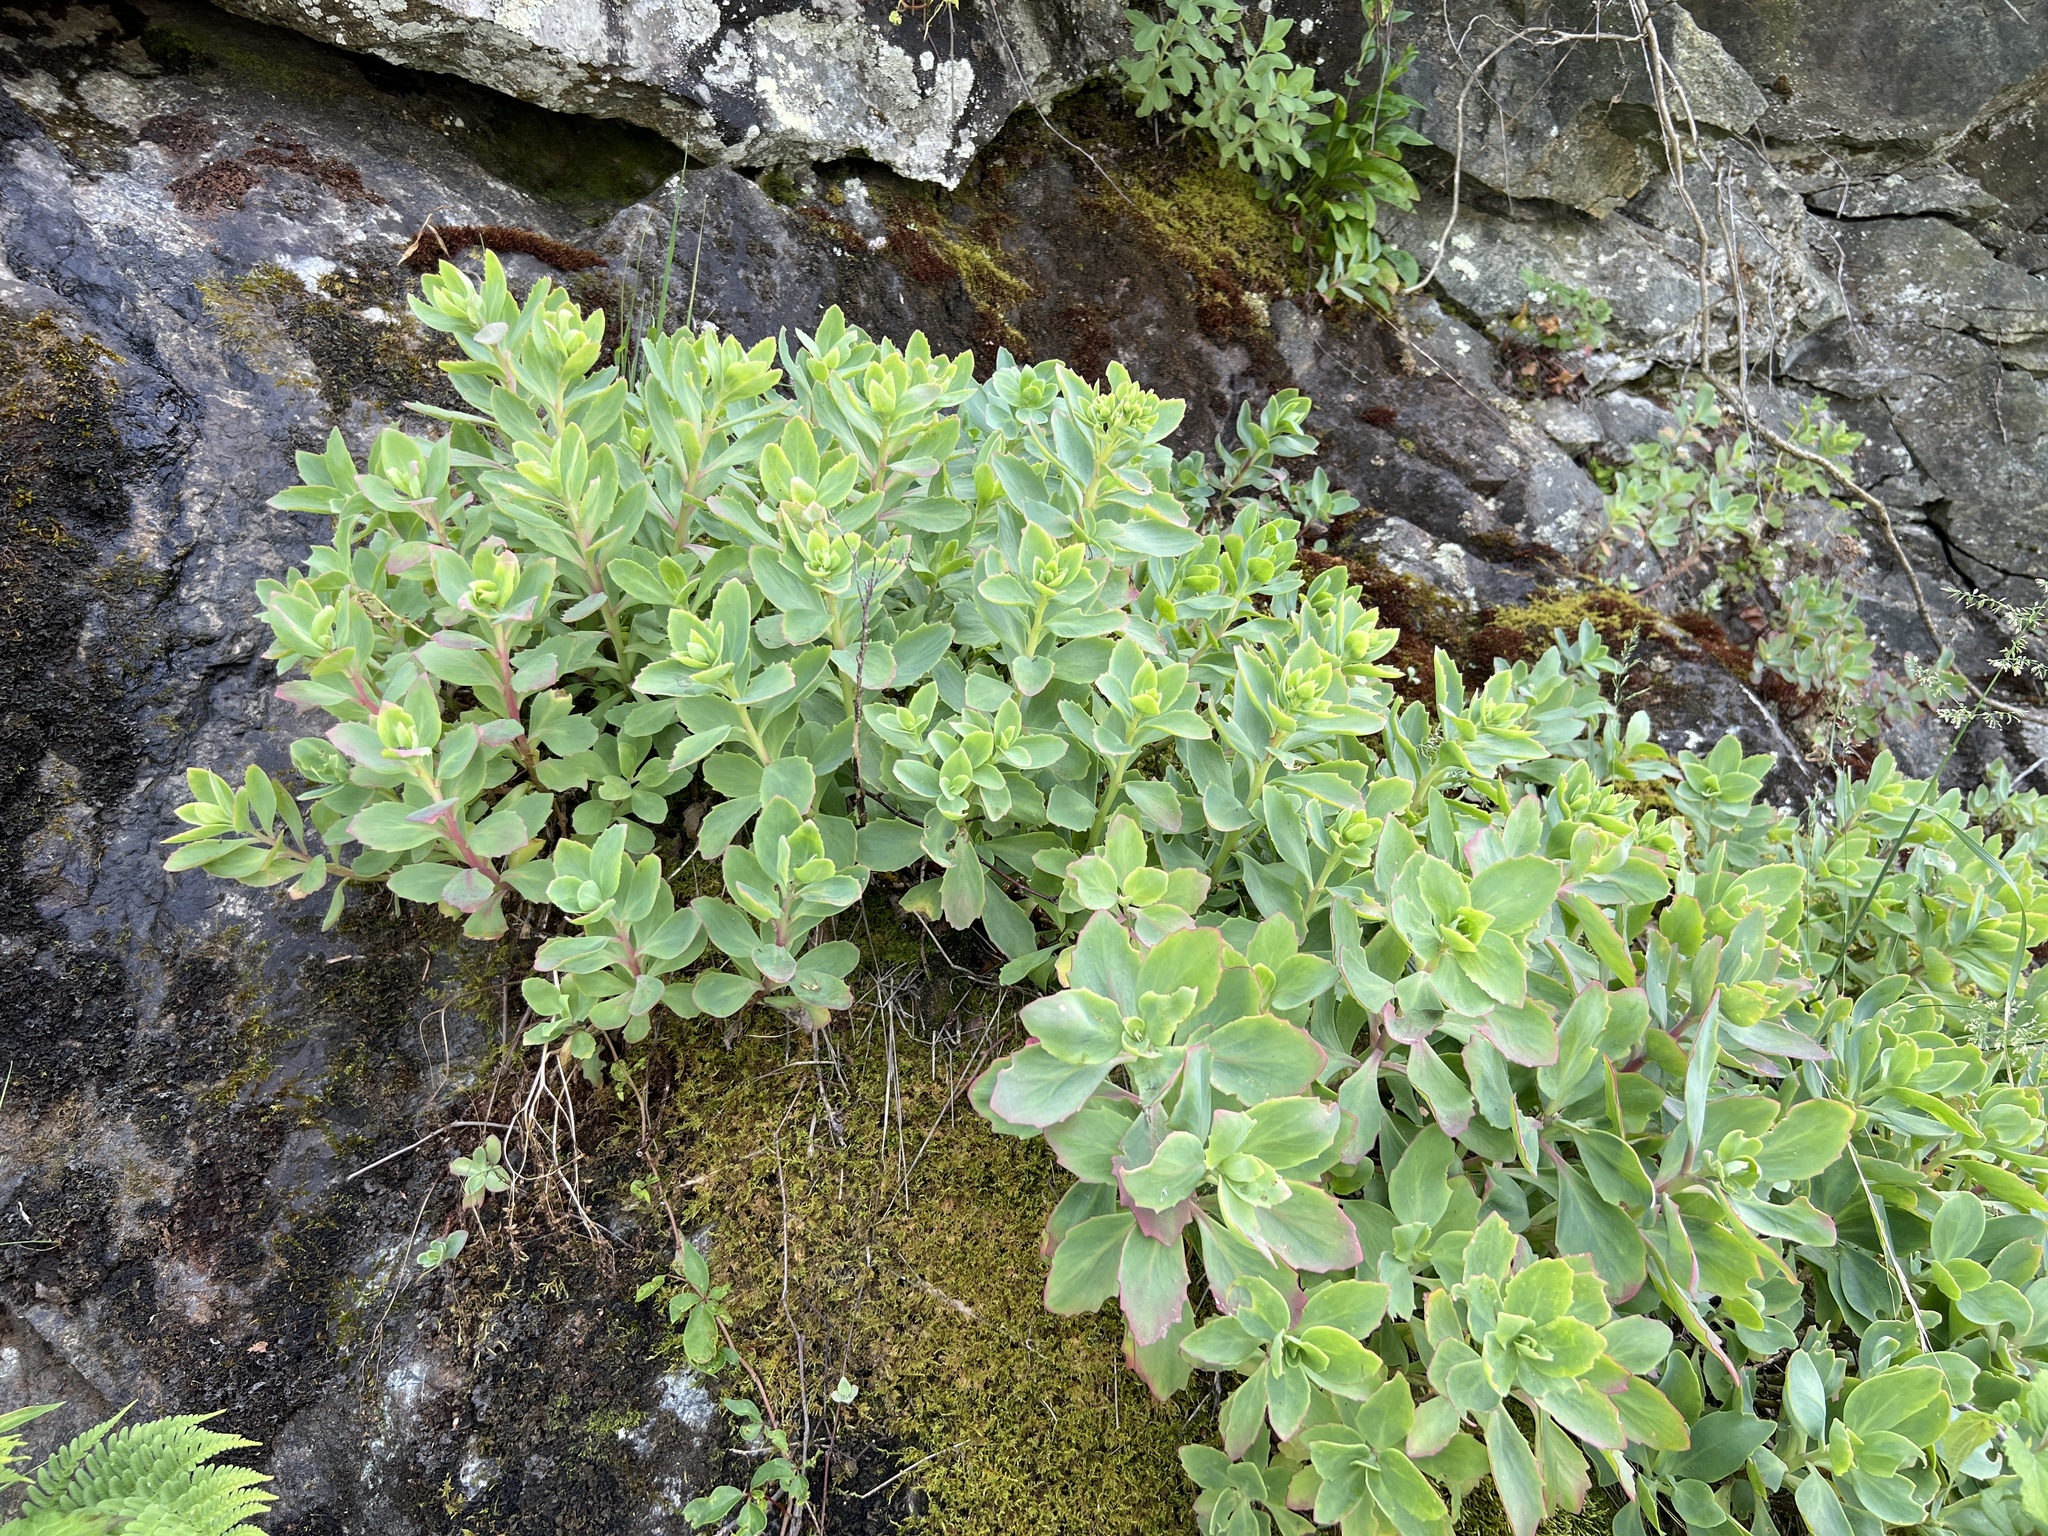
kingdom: Plantae
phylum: Tracheophyta
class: Magnoliopsida
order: Saxifragales
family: Crassulaceae
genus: Hylotelephium
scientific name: Hylotelephium telephioides
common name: Allegheny stonecrop
